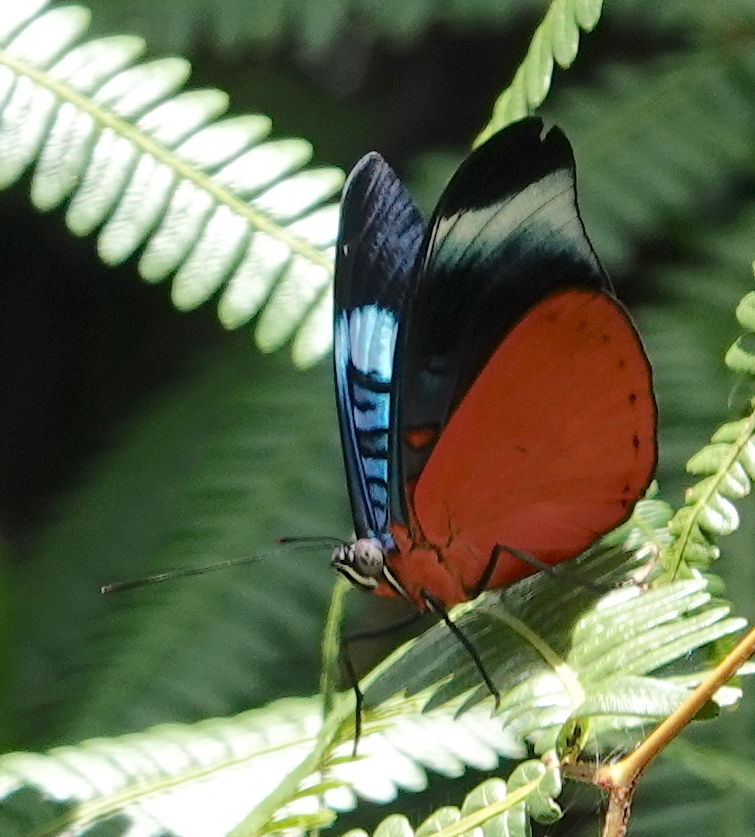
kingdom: Animalia
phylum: Arthropoda
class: Insecta
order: Lepidoptera
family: Nymphalidae
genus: Panacea
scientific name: Panacea prola
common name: Red flasher
